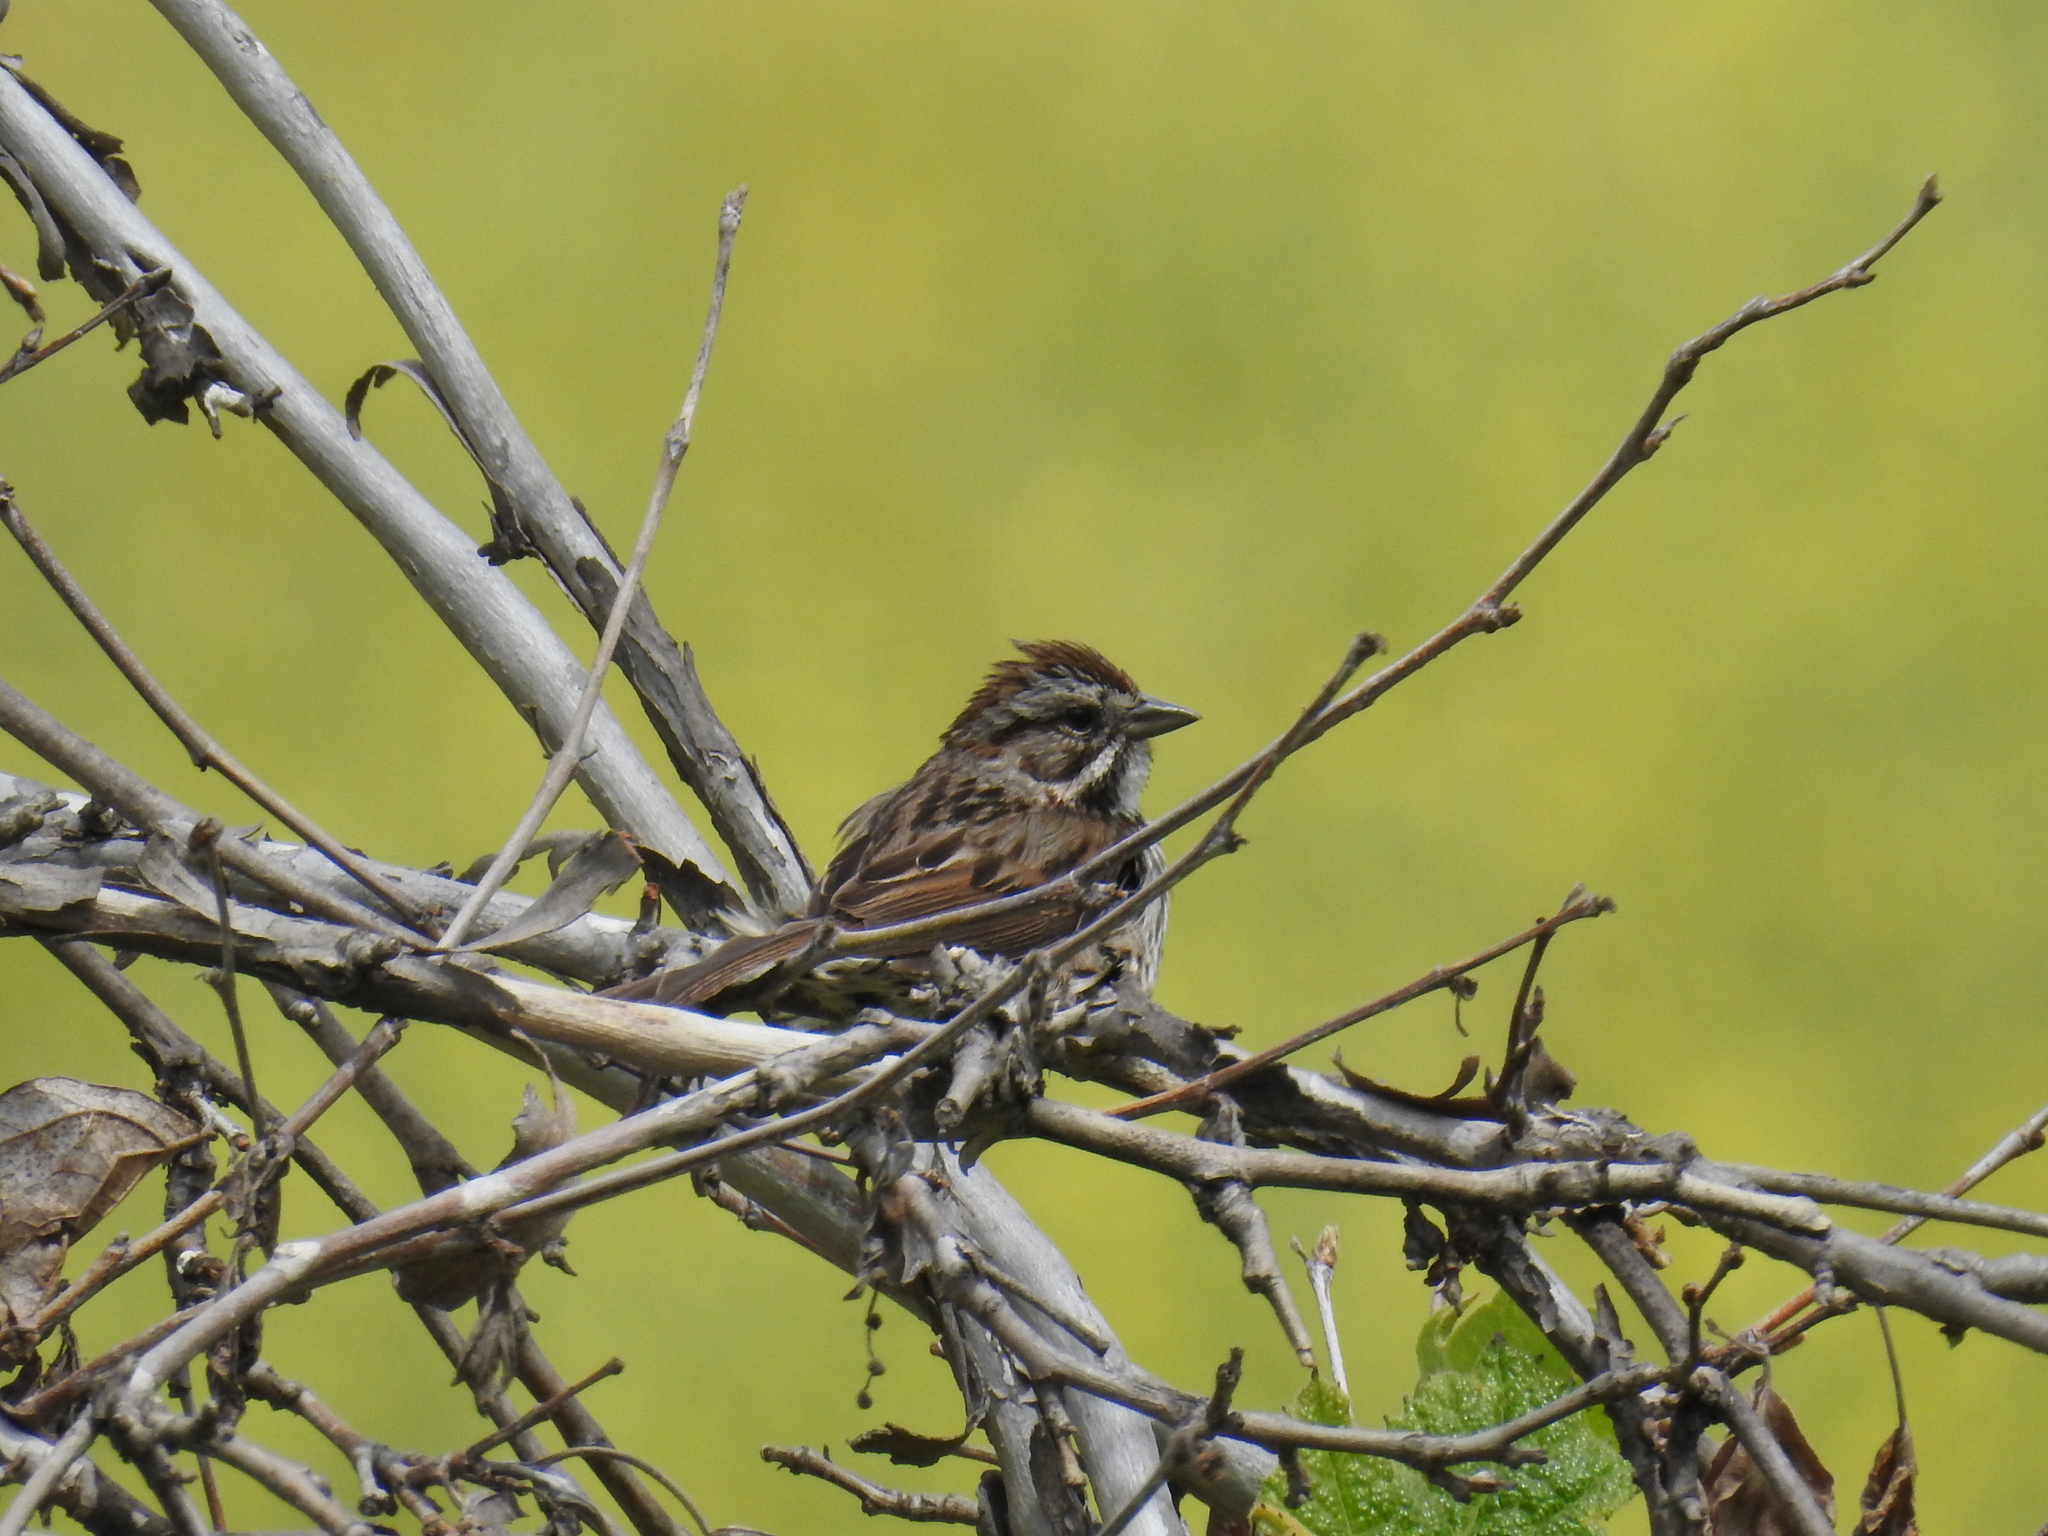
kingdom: Animalia
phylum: Chordata
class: Aves
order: Passeriformes
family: Passerellidae
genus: Melospiza
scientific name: Melospiza melodia
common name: Song sparrow
